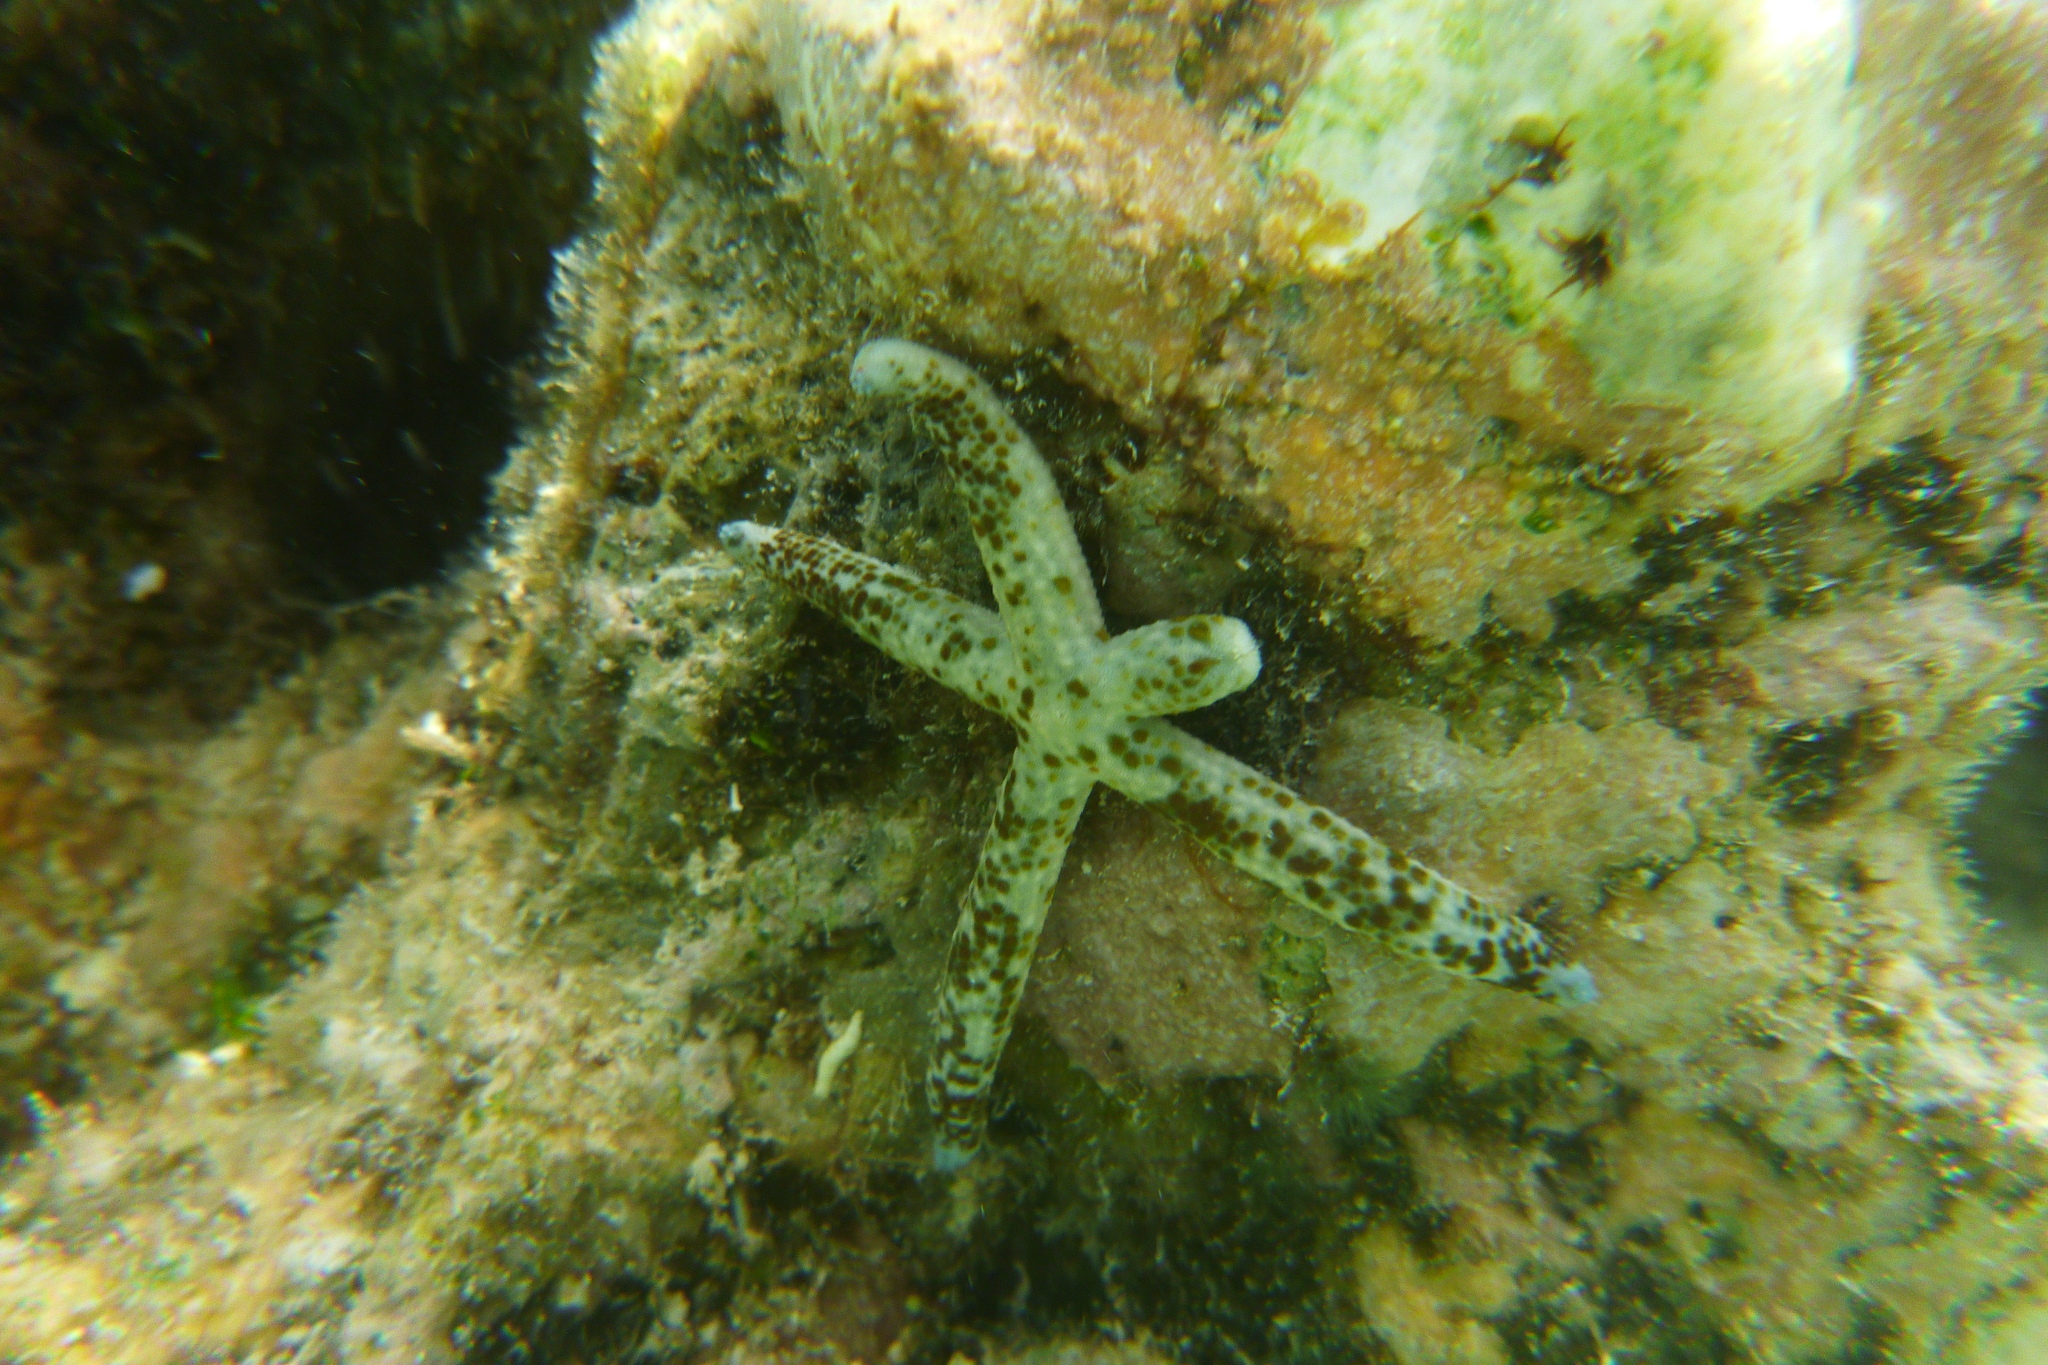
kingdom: Animalia
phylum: Echinodermata
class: Asteroidea
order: Valvatida
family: Ophidiasteridae
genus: Linckia
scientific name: Linckia multifora
